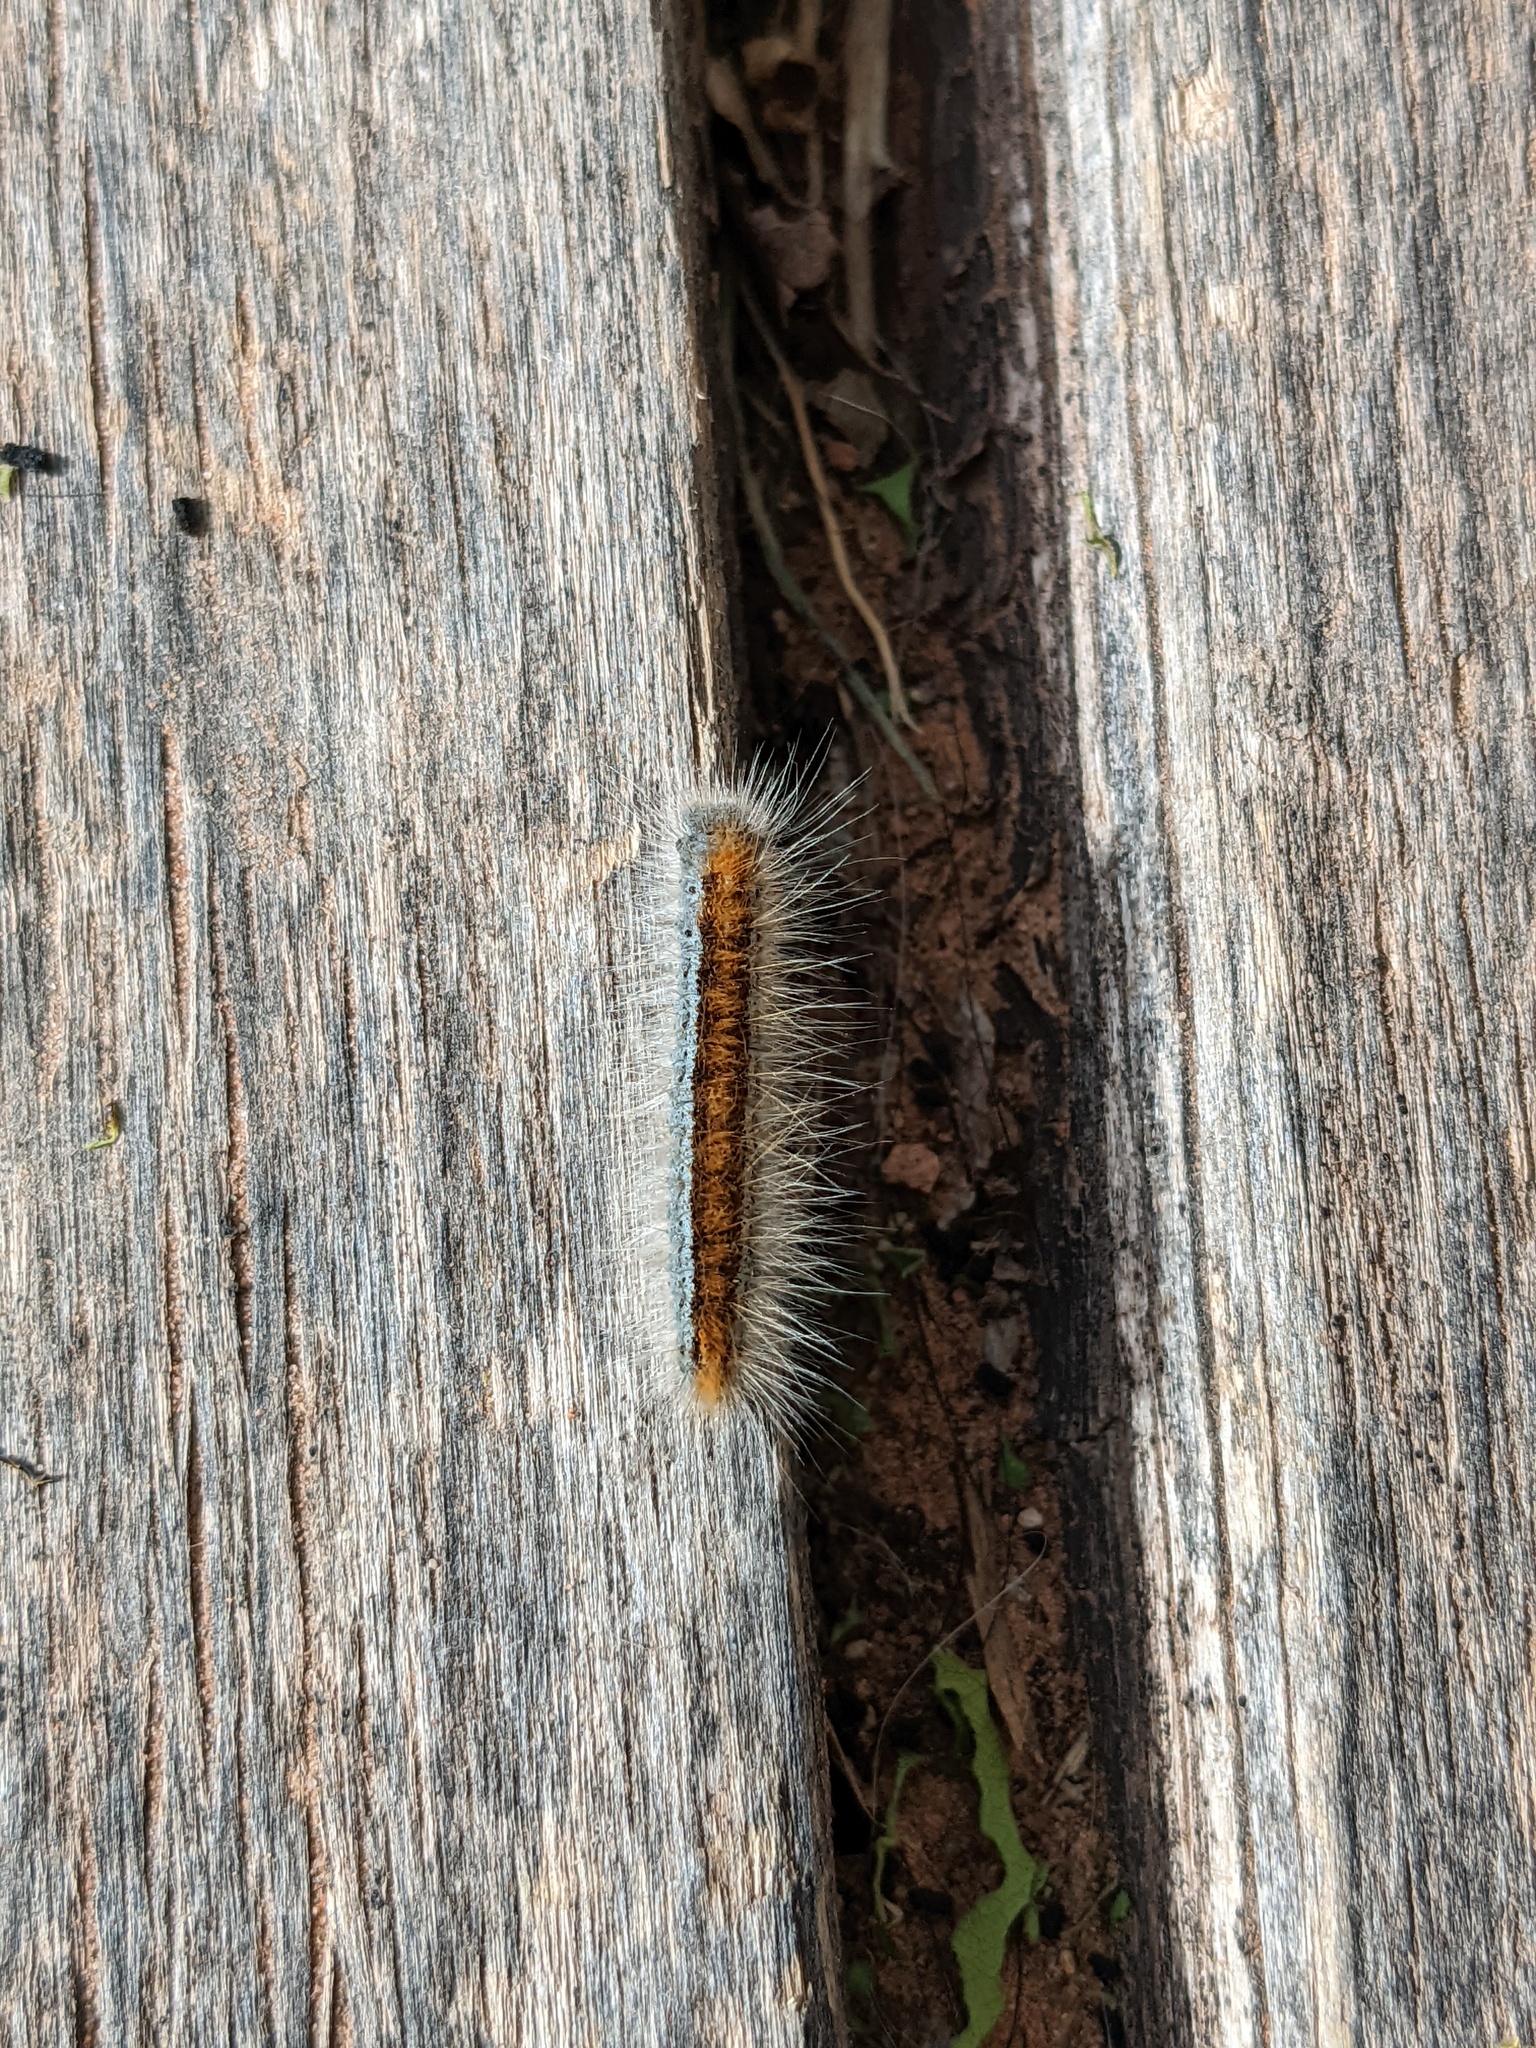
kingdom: Animalia
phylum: Arthropoda
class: Insecta
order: Lepidoptera
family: Lasiocampidae
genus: Malacosoma
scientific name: Malacosoma incurva
